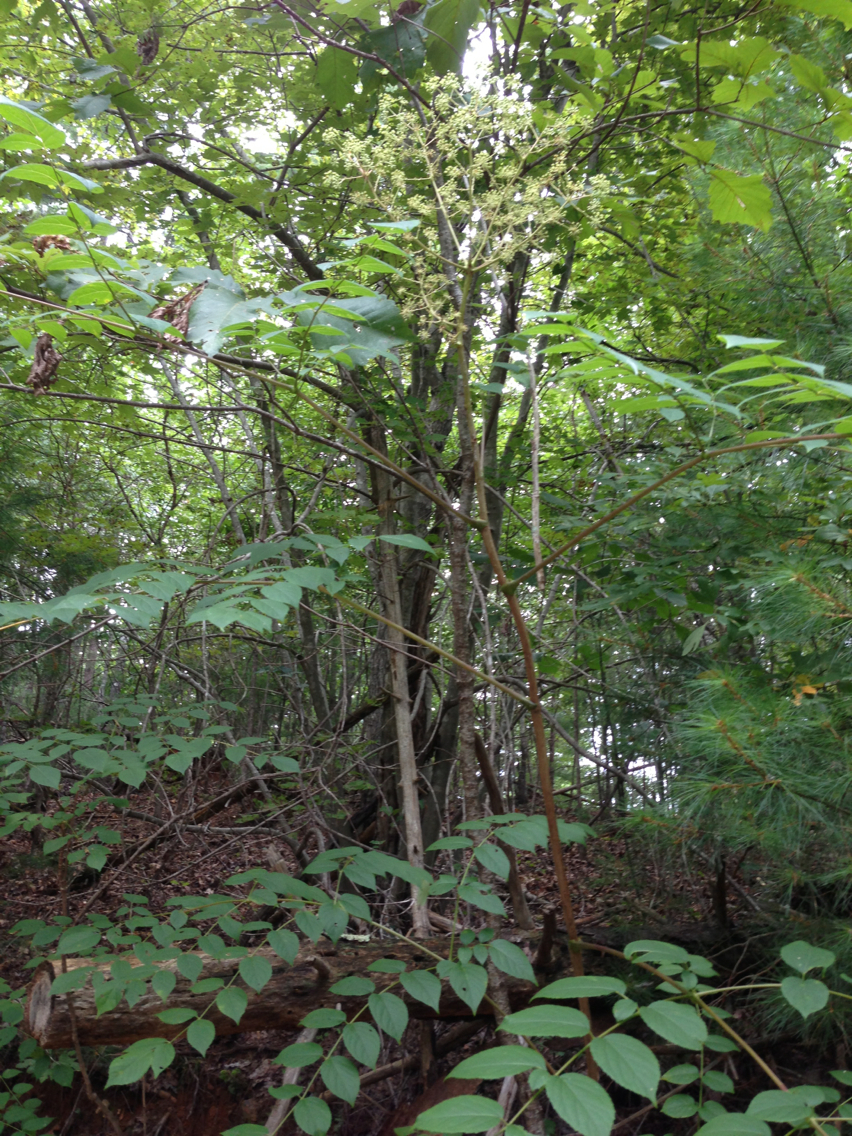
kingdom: Plantae
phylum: Tracheophyta
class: Magnoliopsida
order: Apiales
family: Araliaceae
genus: Aralia
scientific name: Aralia spinosa
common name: Hercules'-club
